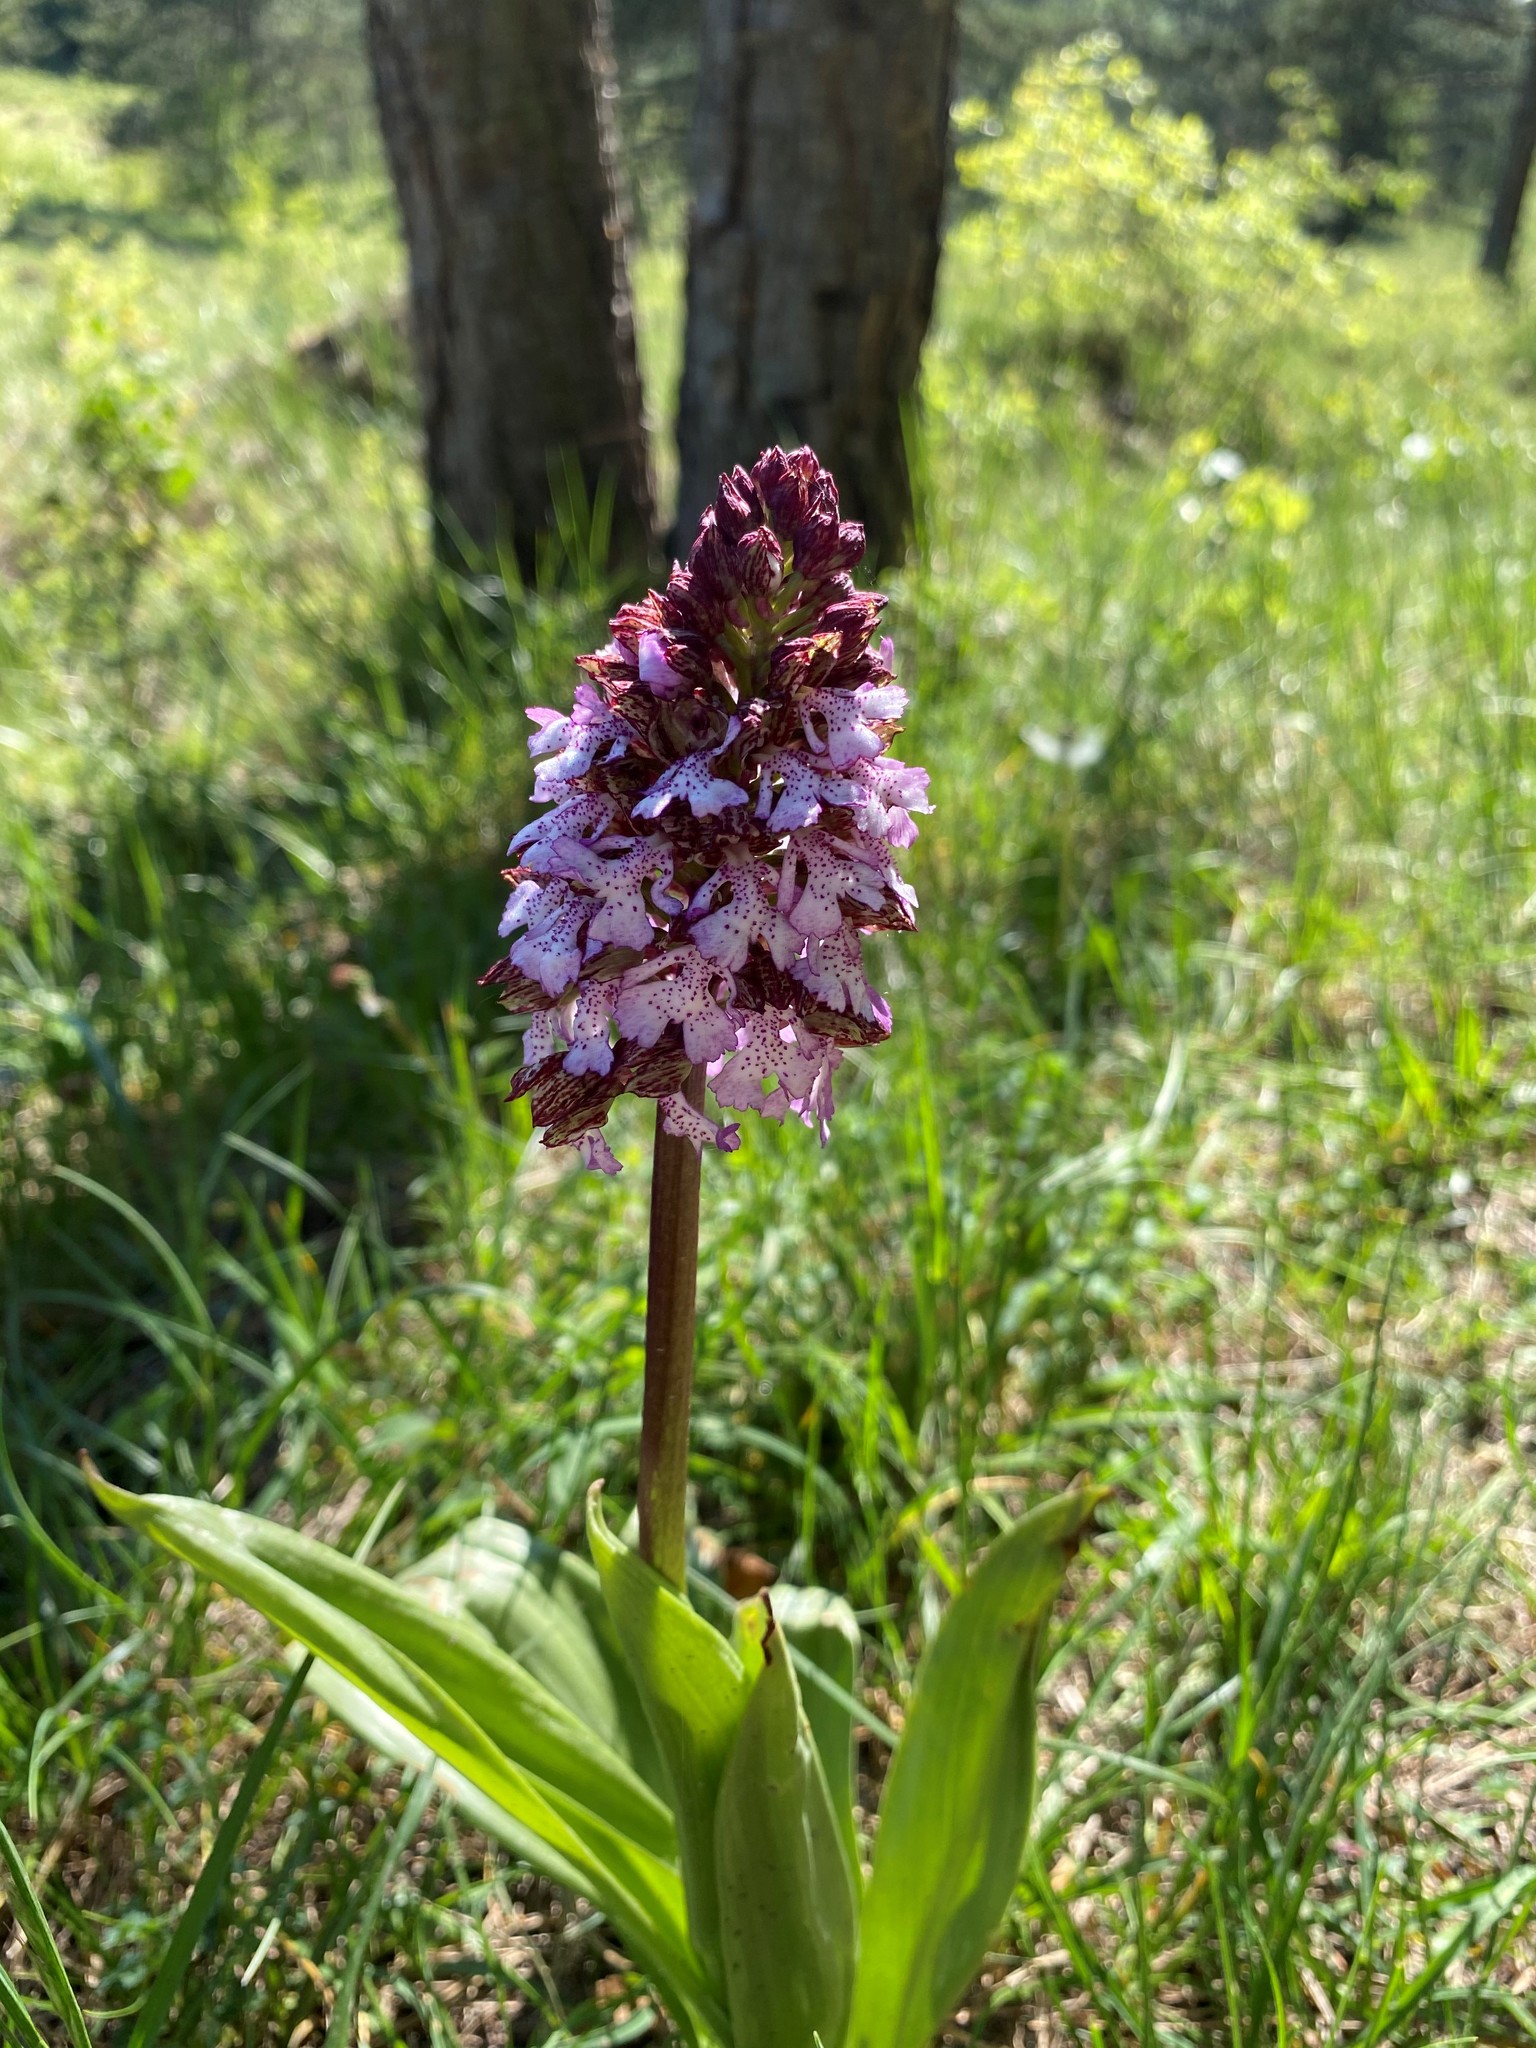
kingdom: Plantae
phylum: Tracheophyta
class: Liliopsida
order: Asparagales
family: Orchidaceae
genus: Orchis
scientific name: Orchis purpurea
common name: Lady orchid
